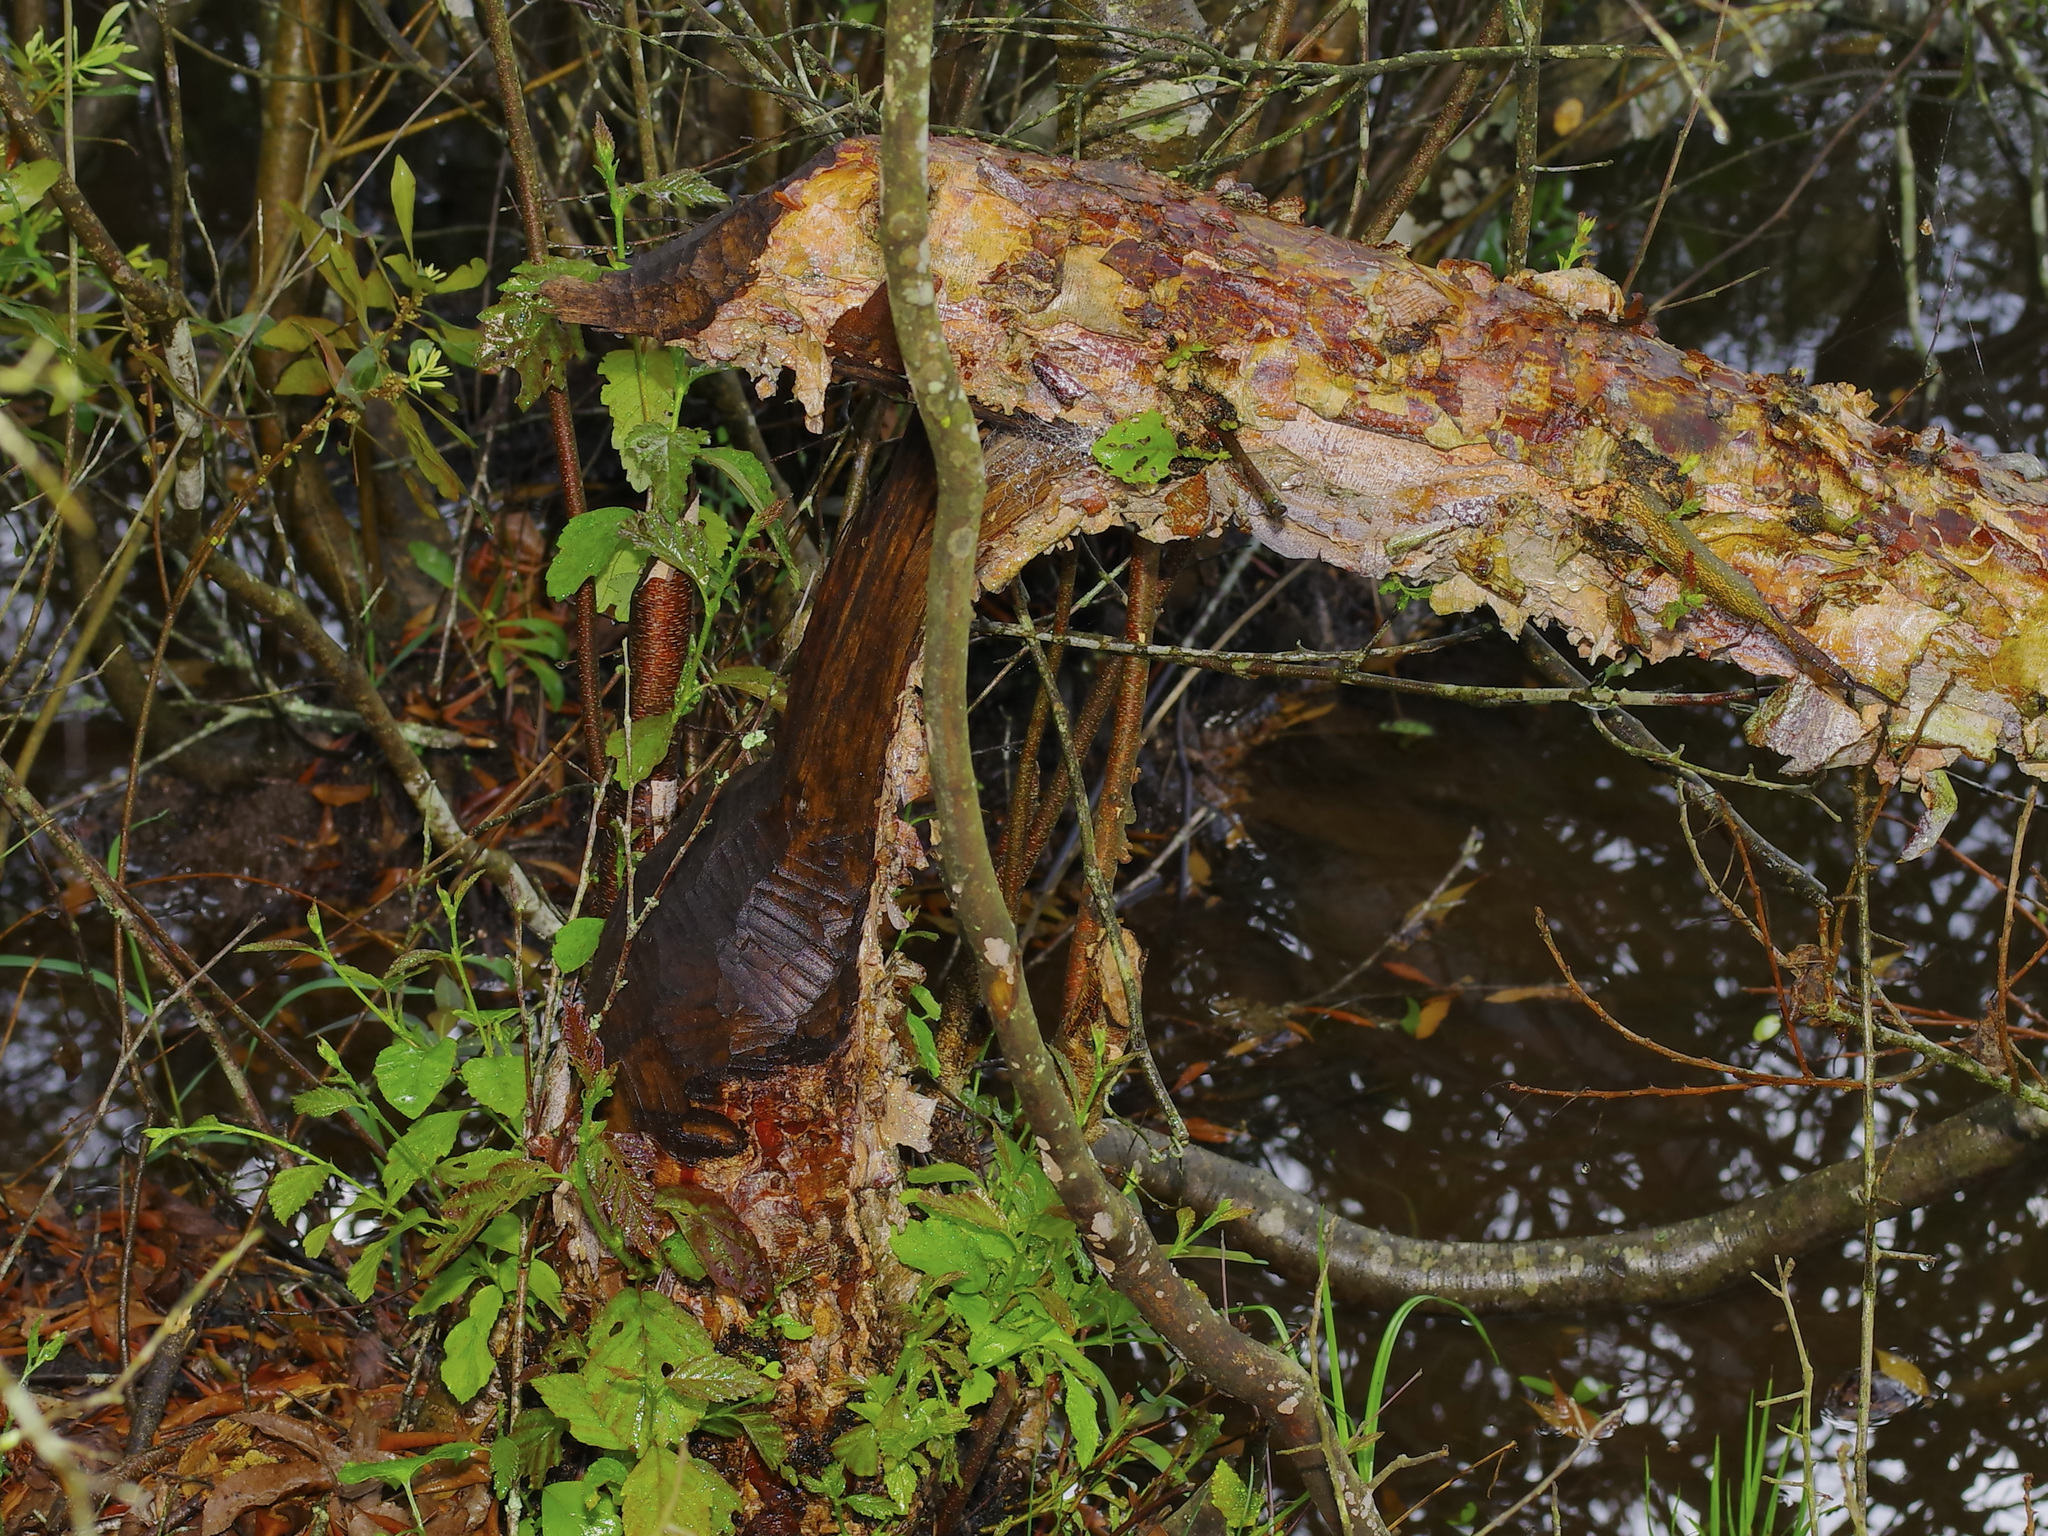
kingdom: Animalia
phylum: Chordata
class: Mammalia
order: Rodentia
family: Castoridae
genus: Castor
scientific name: Castor canadensis
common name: American beaver
